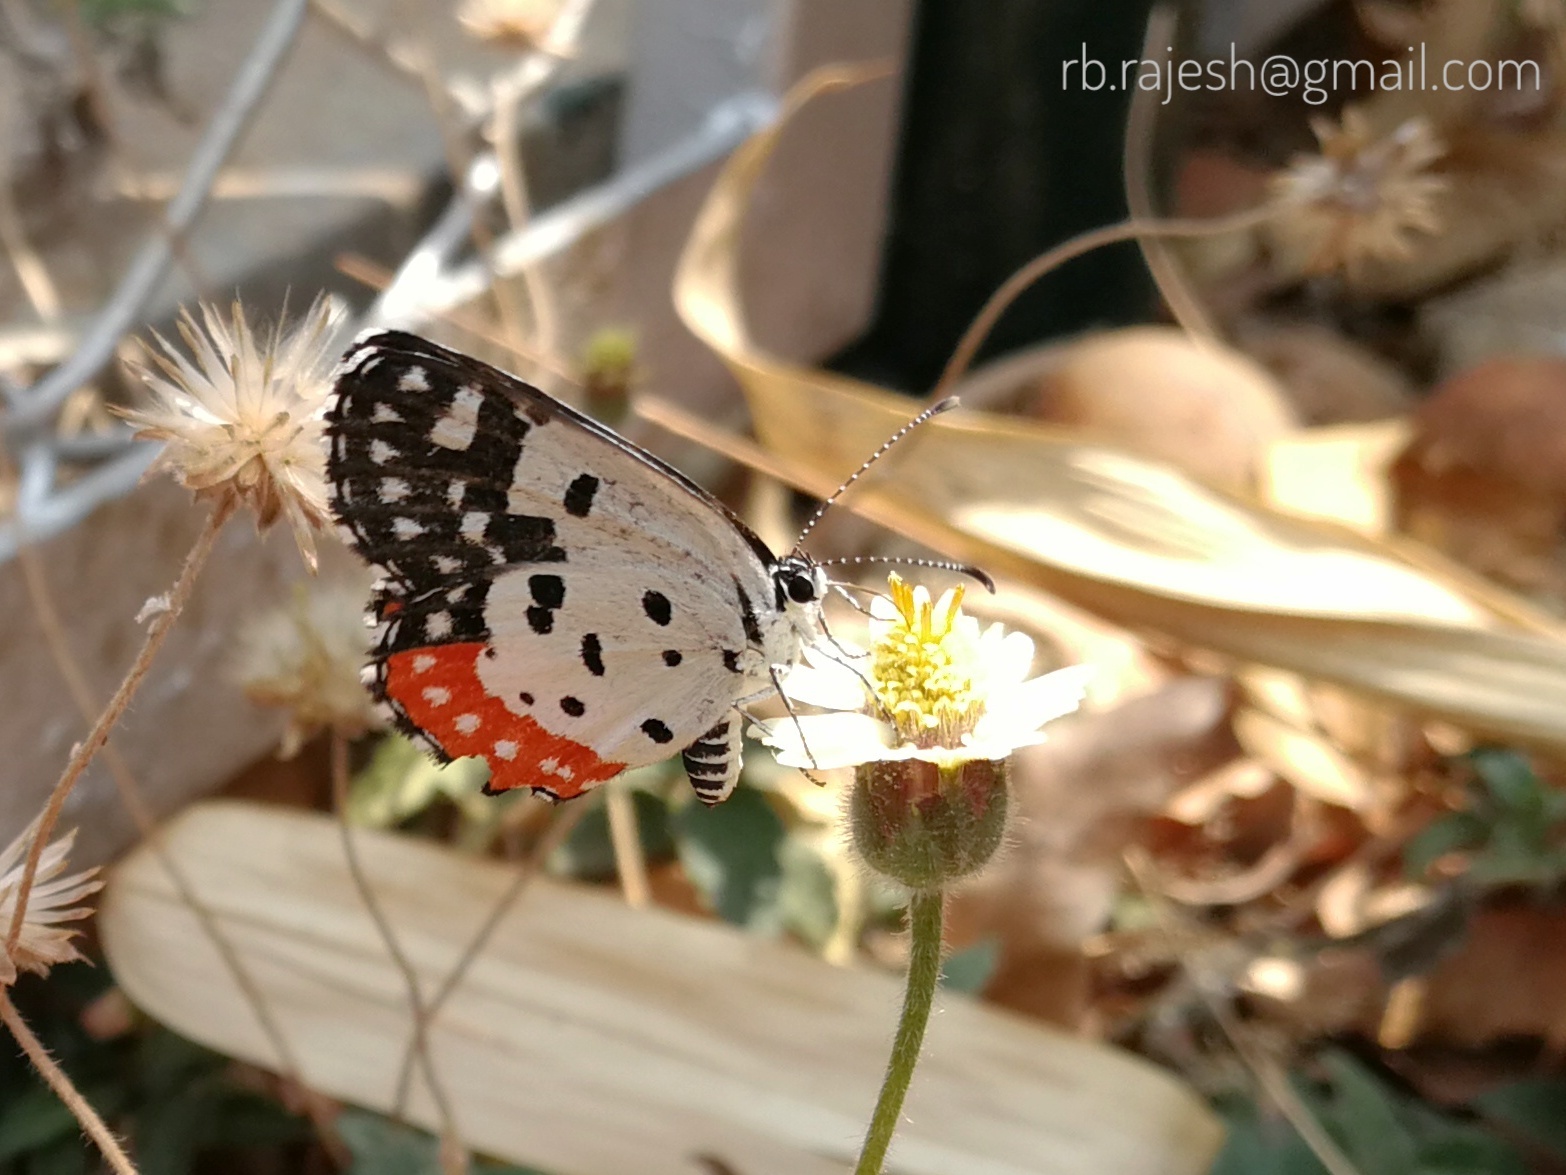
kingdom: Animalia
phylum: Arthropoda
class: Insecta
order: Lepidoptera
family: Lycaenidae
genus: Talicada
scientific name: Talicada nyseus
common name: Red pierrot
